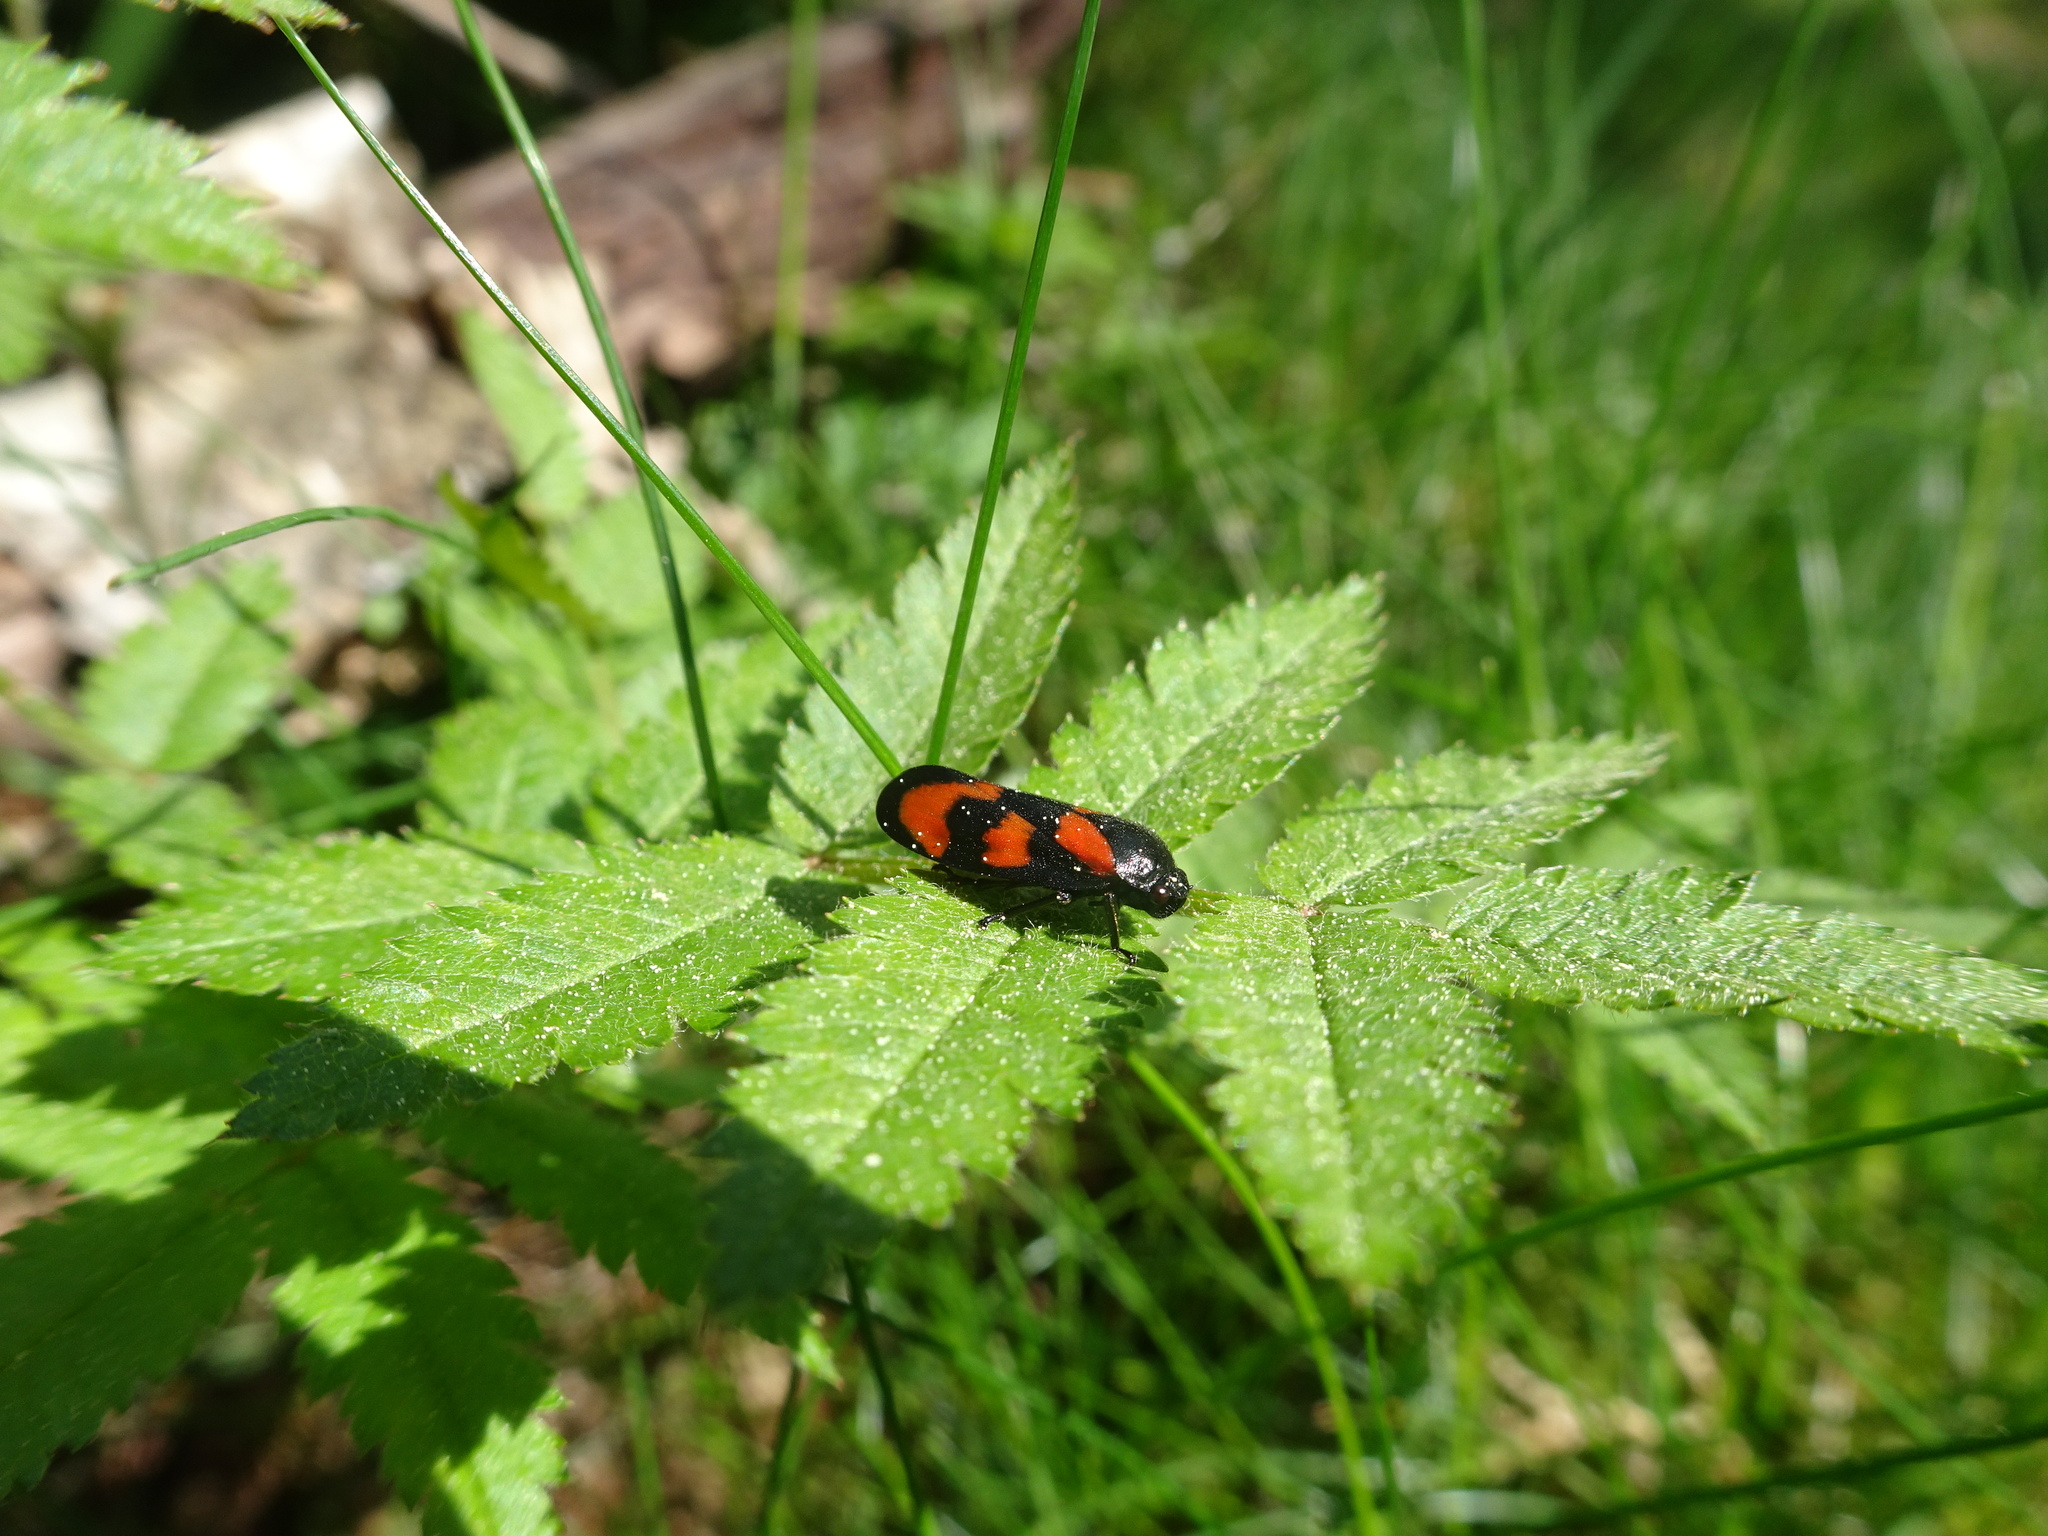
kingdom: Animalia
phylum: Arthropoda
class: Insecta
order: Hemiptera
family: Cercopidae
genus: Cercopis
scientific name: Cercopis vulnerata
